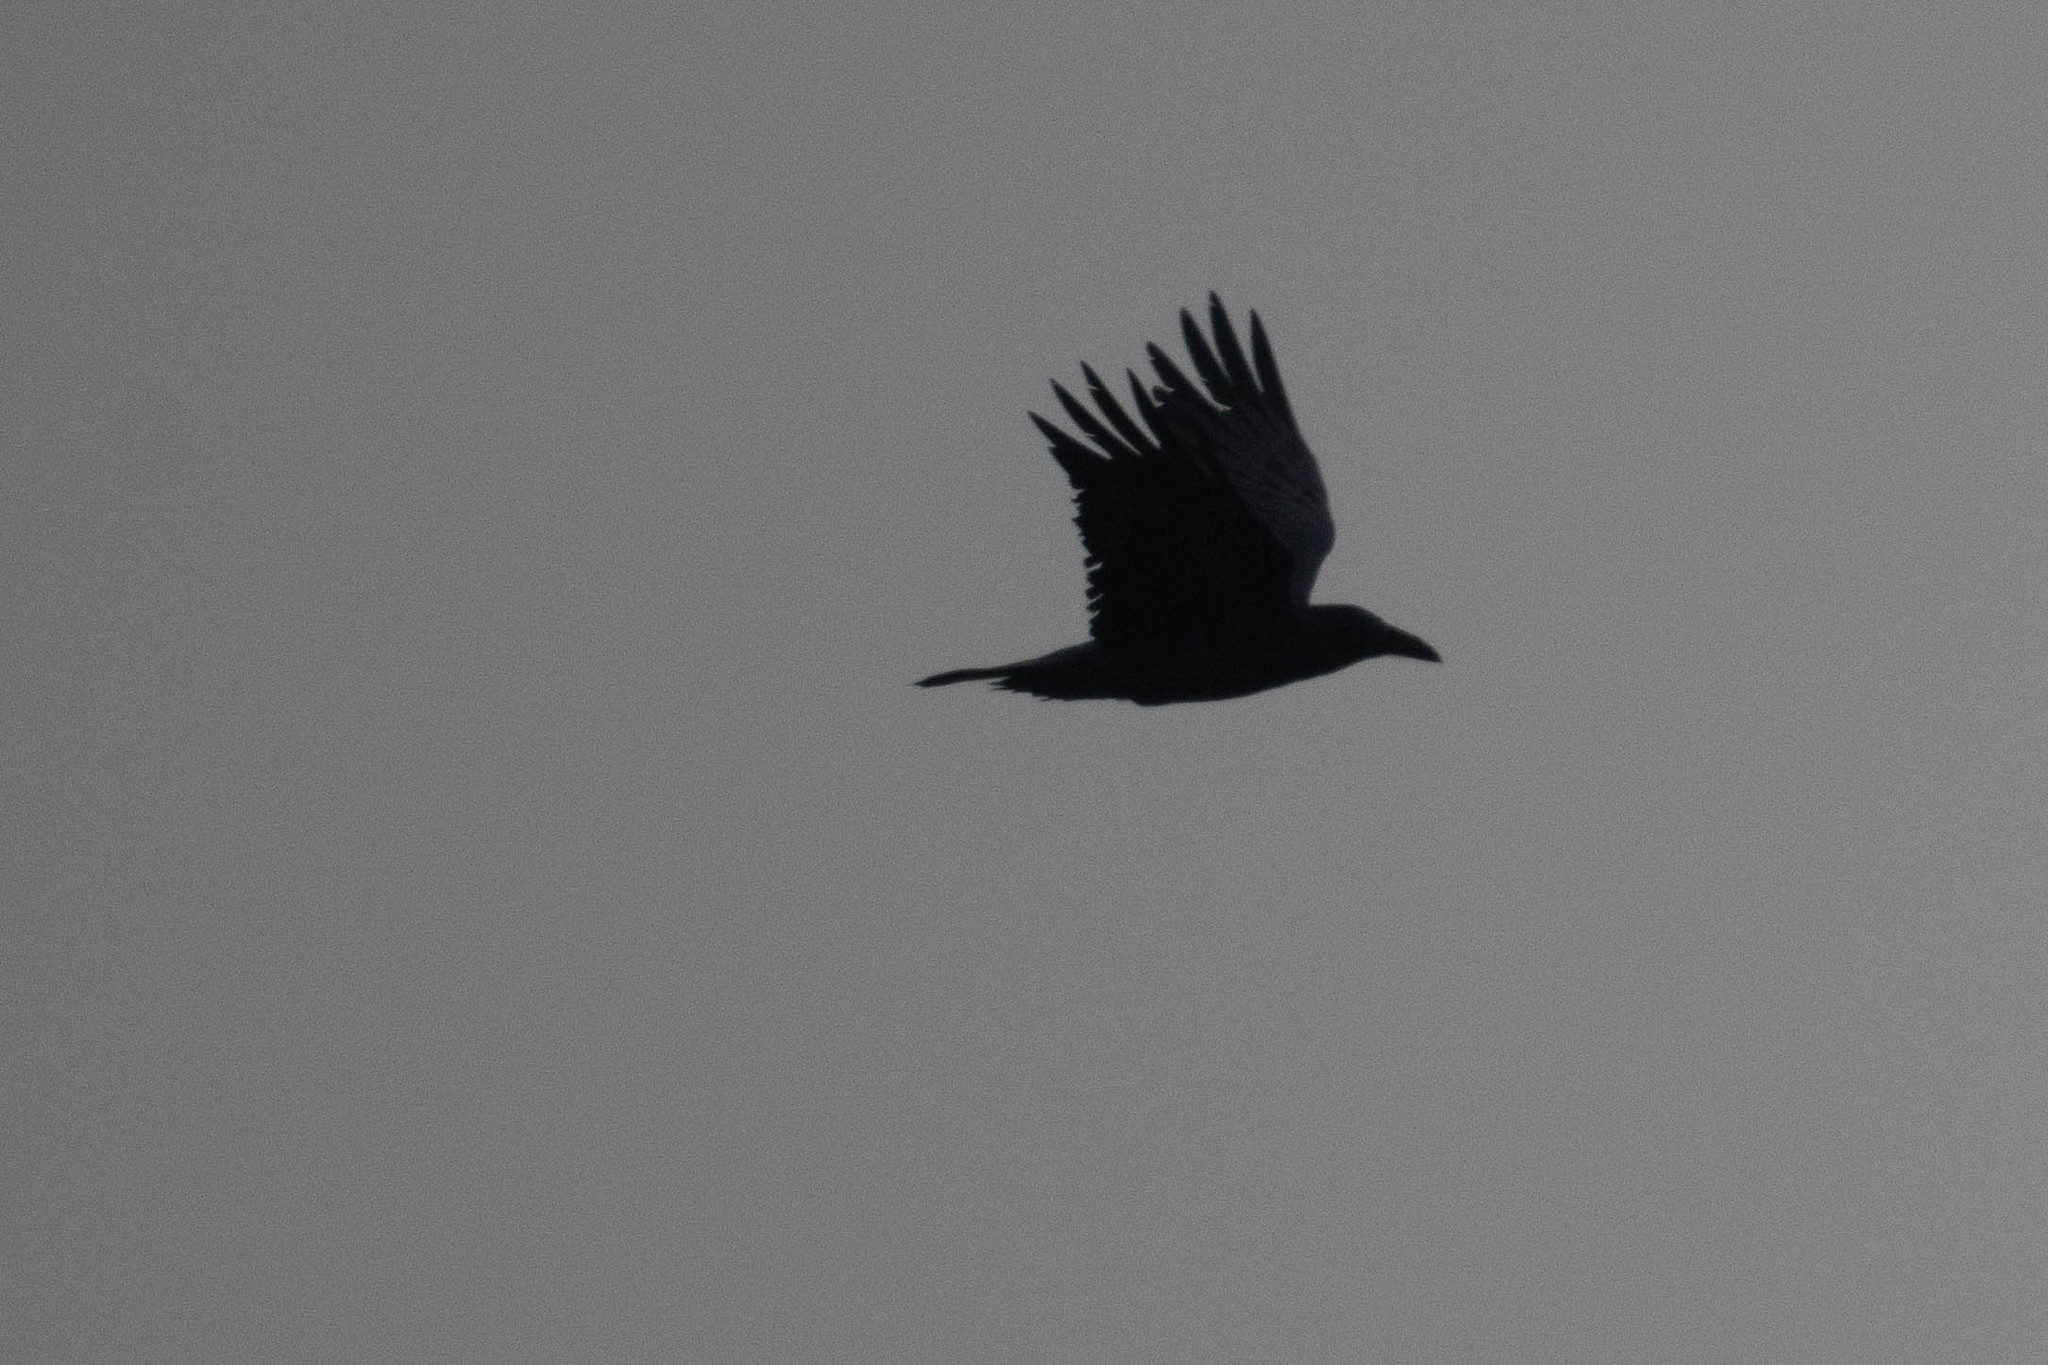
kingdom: Animalia
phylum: Chordata
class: Aves
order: Passeriformes
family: Corvidae
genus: Corvus
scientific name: Corvus corax
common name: Common raven
